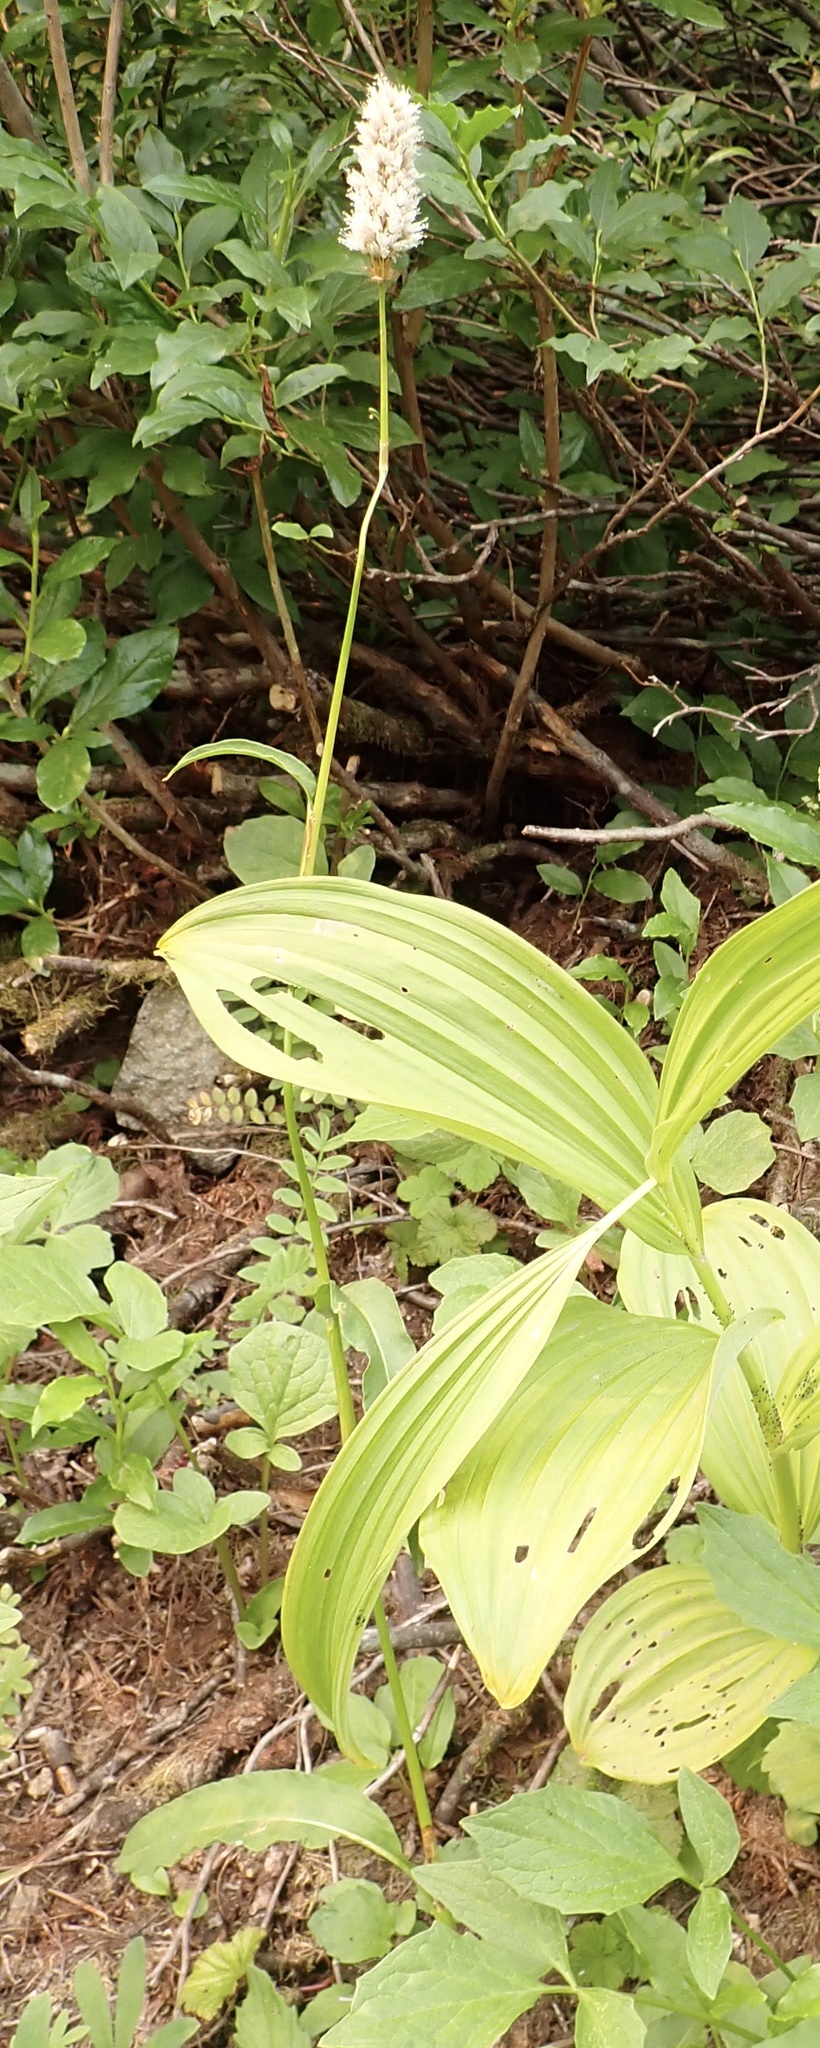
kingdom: Plantae
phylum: Tracheophyta
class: Magnoliopsida
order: Caryophyllales
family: Polygonaceae
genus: Bistorta
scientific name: Bistorta bistortoides
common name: American bistort
